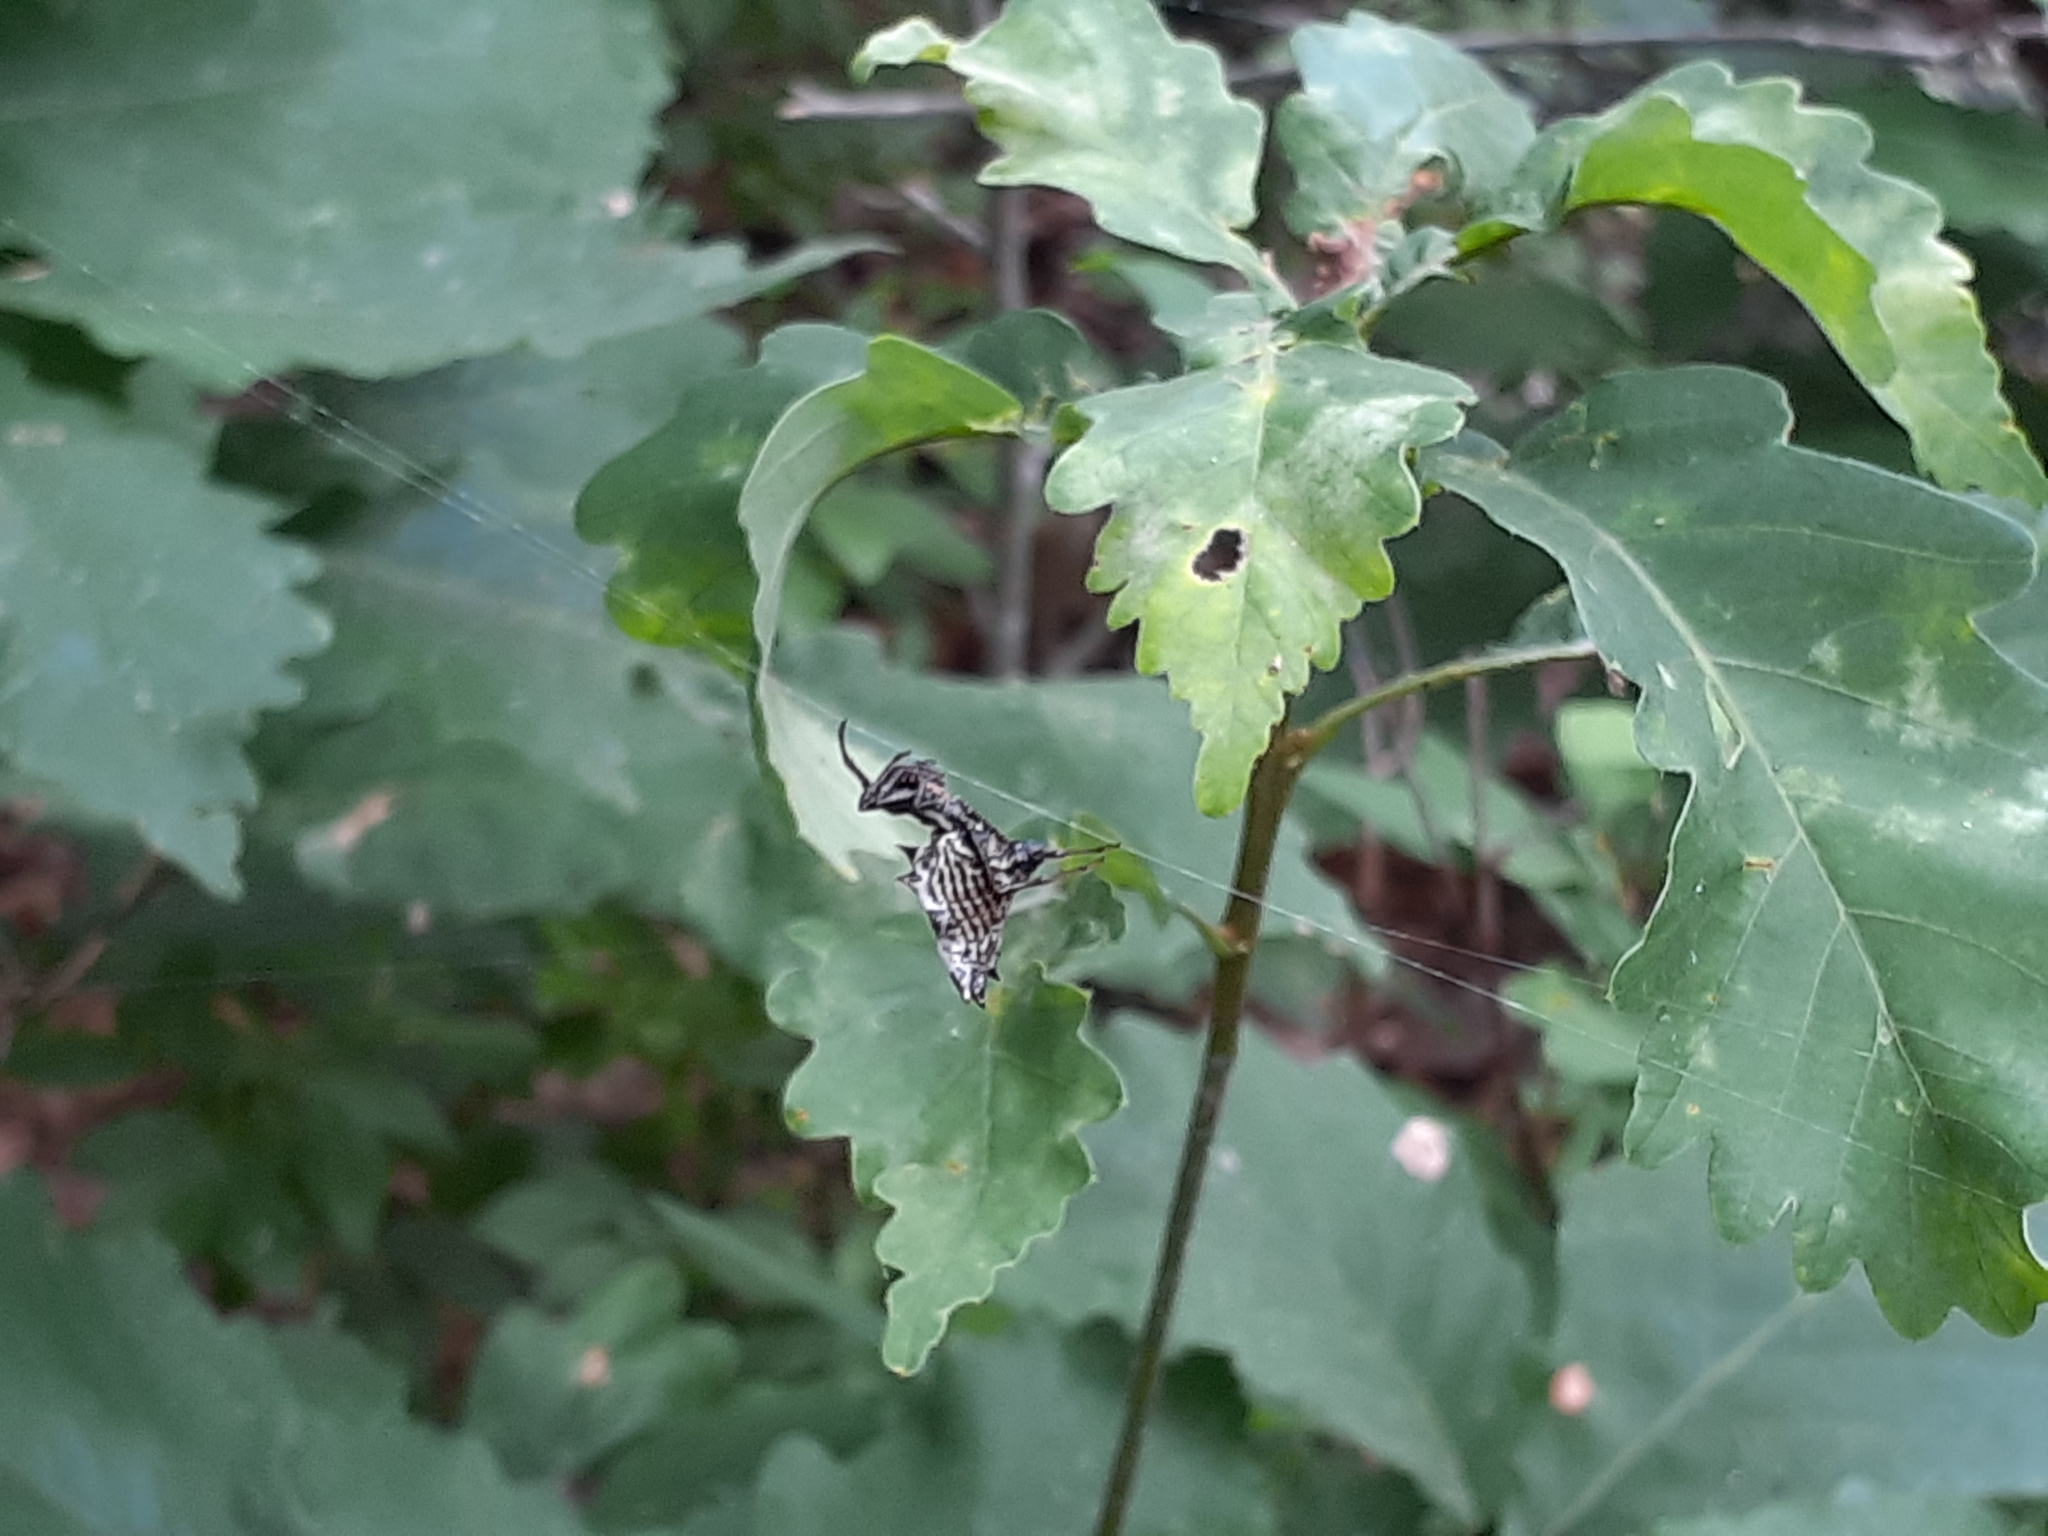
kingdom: Animalia
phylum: Arthropoda
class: Arachnida
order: Araneae
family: Araneidae
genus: Micrathena
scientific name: Micrathena gracilis
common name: Orb weavers
